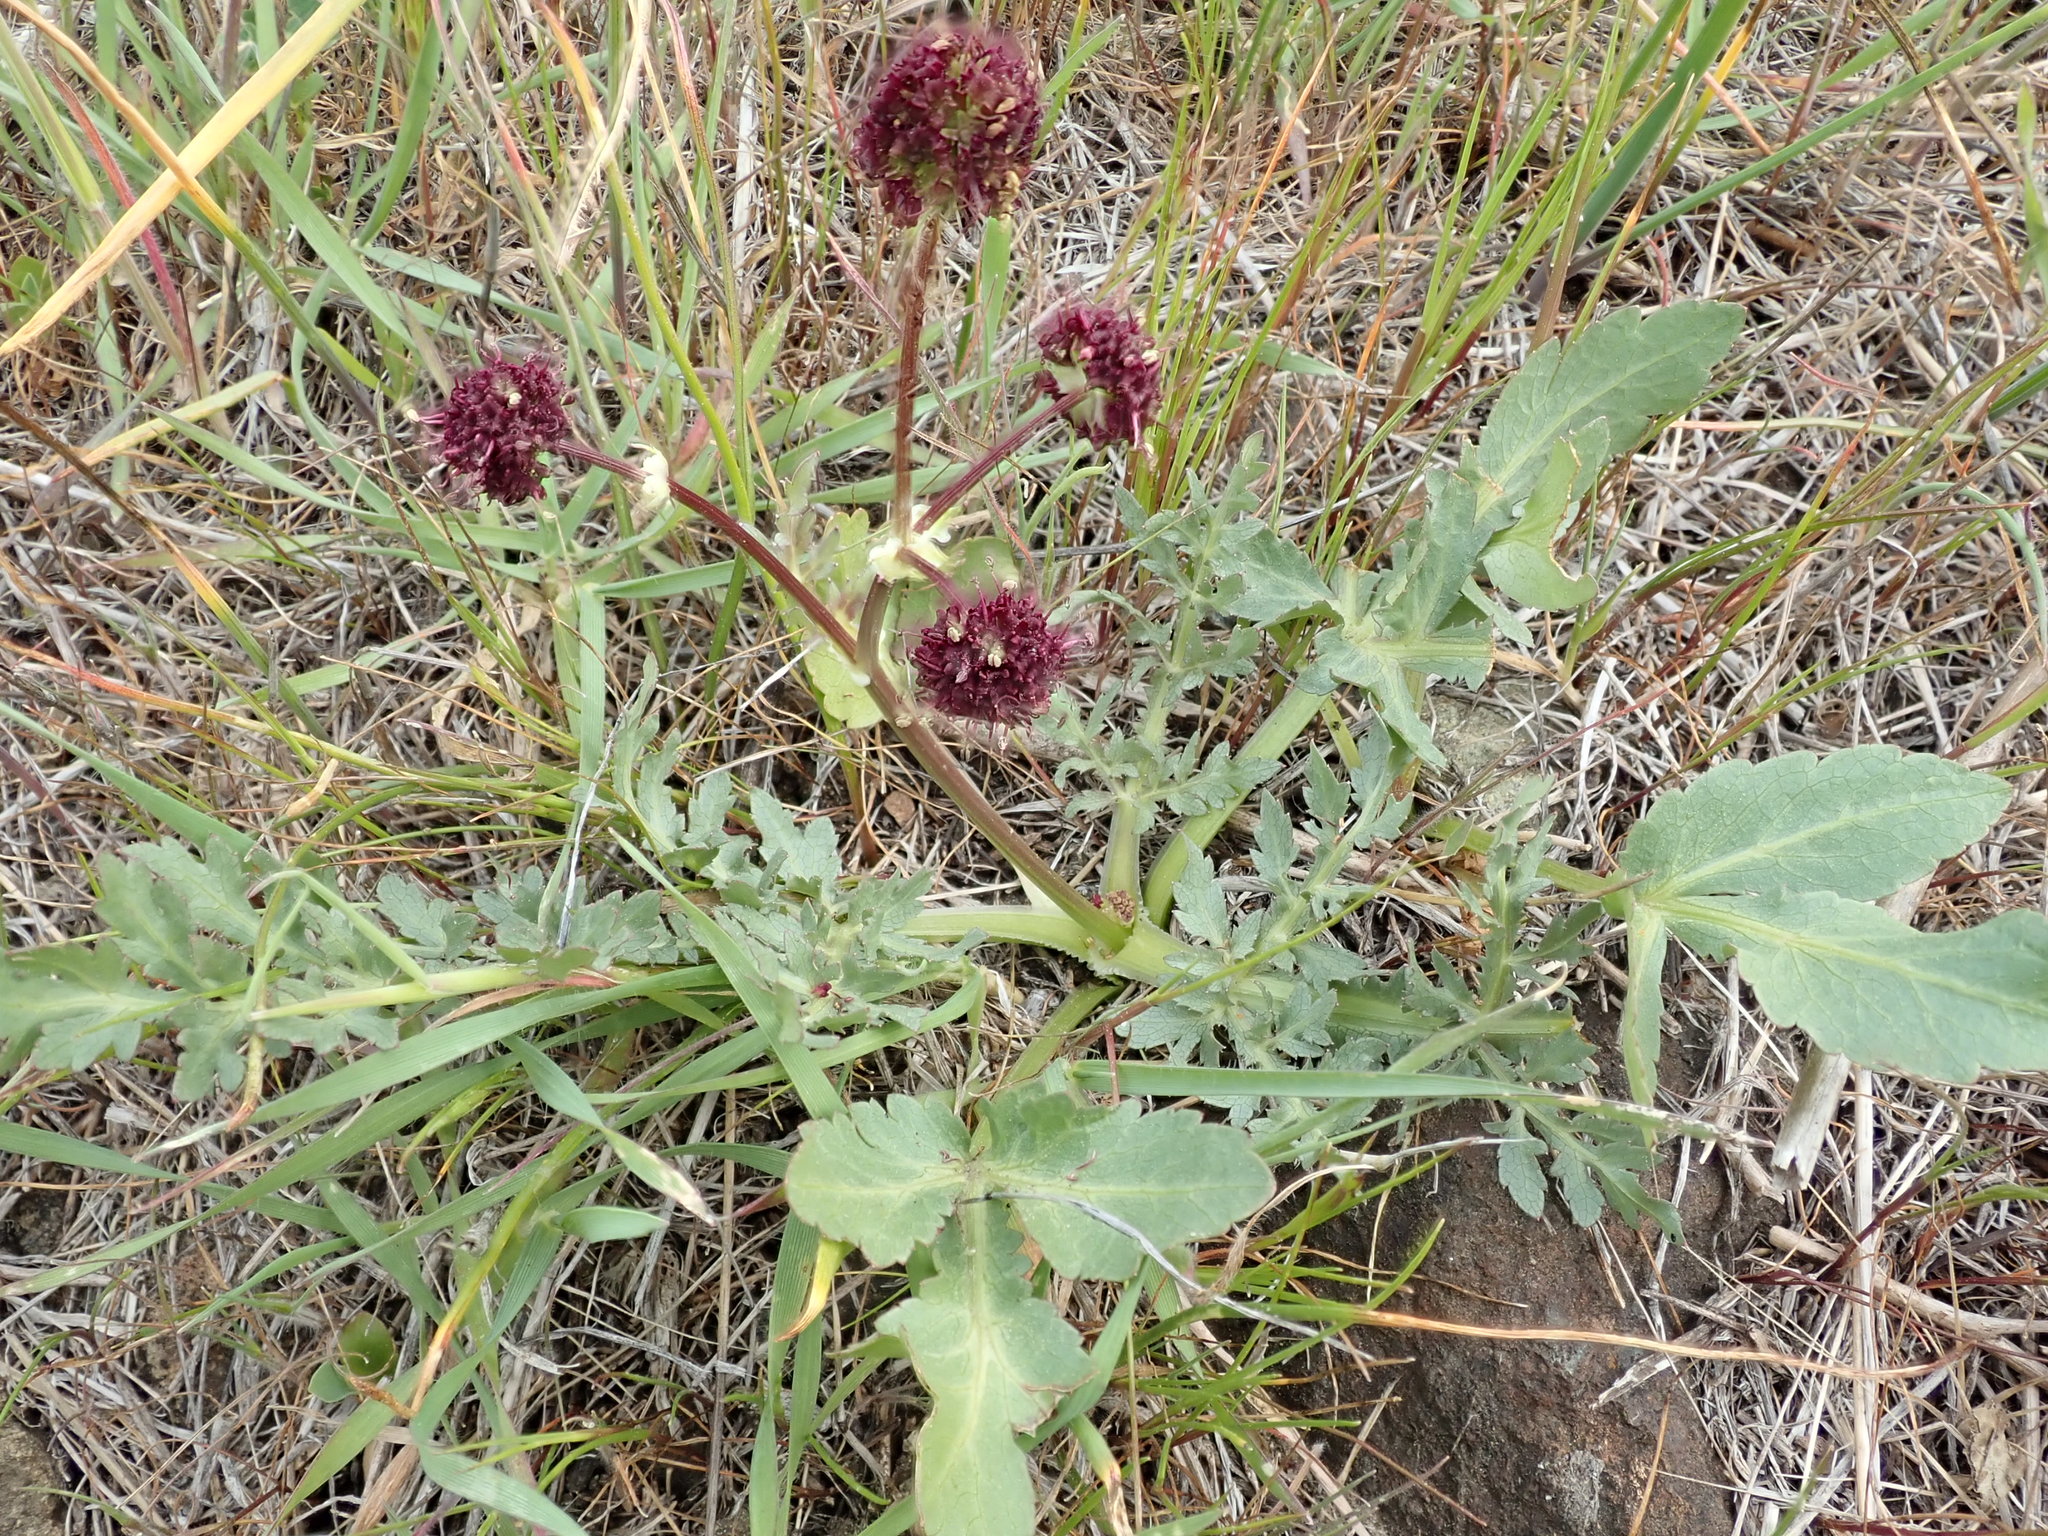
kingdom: Plantae
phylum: Tracheophyta
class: Magnoliopsida
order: Apiales
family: Apiaceae
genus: Sanicula
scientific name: Sanicula bipinnatifida
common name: Shoe-buttons
